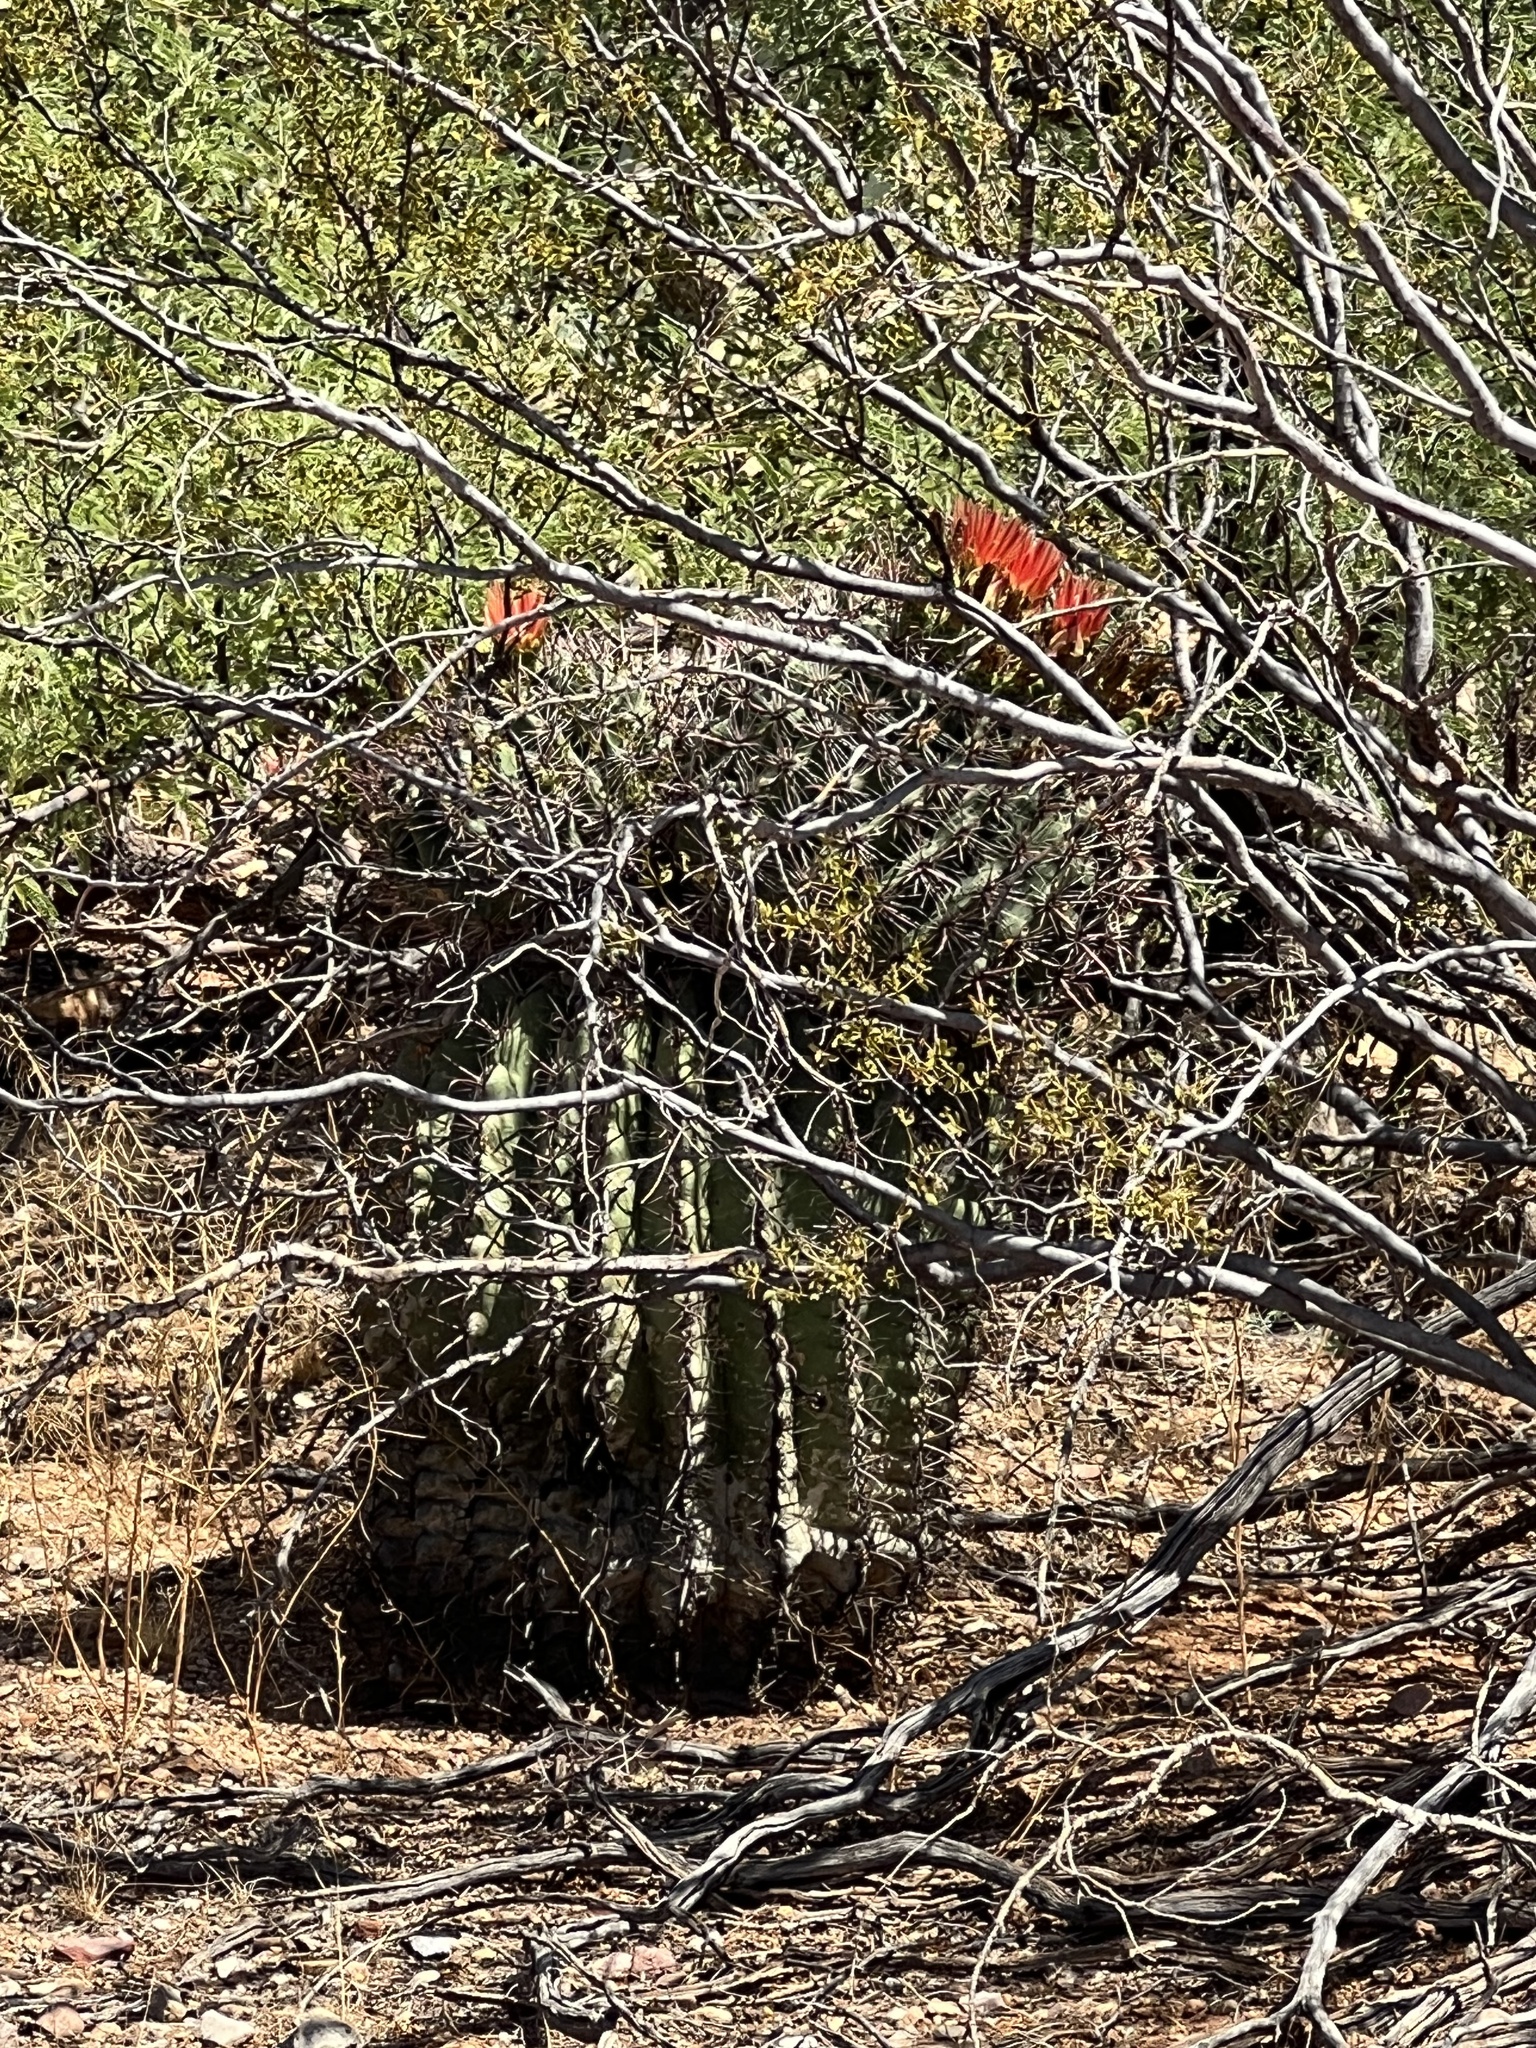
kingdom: Plantae
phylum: Tracheophyta
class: Magnoliopsida
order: Caryophyllales
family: Cactaceae
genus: Ferocactus
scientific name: Ferocactus wislizeni
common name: Candy barrel cactus
